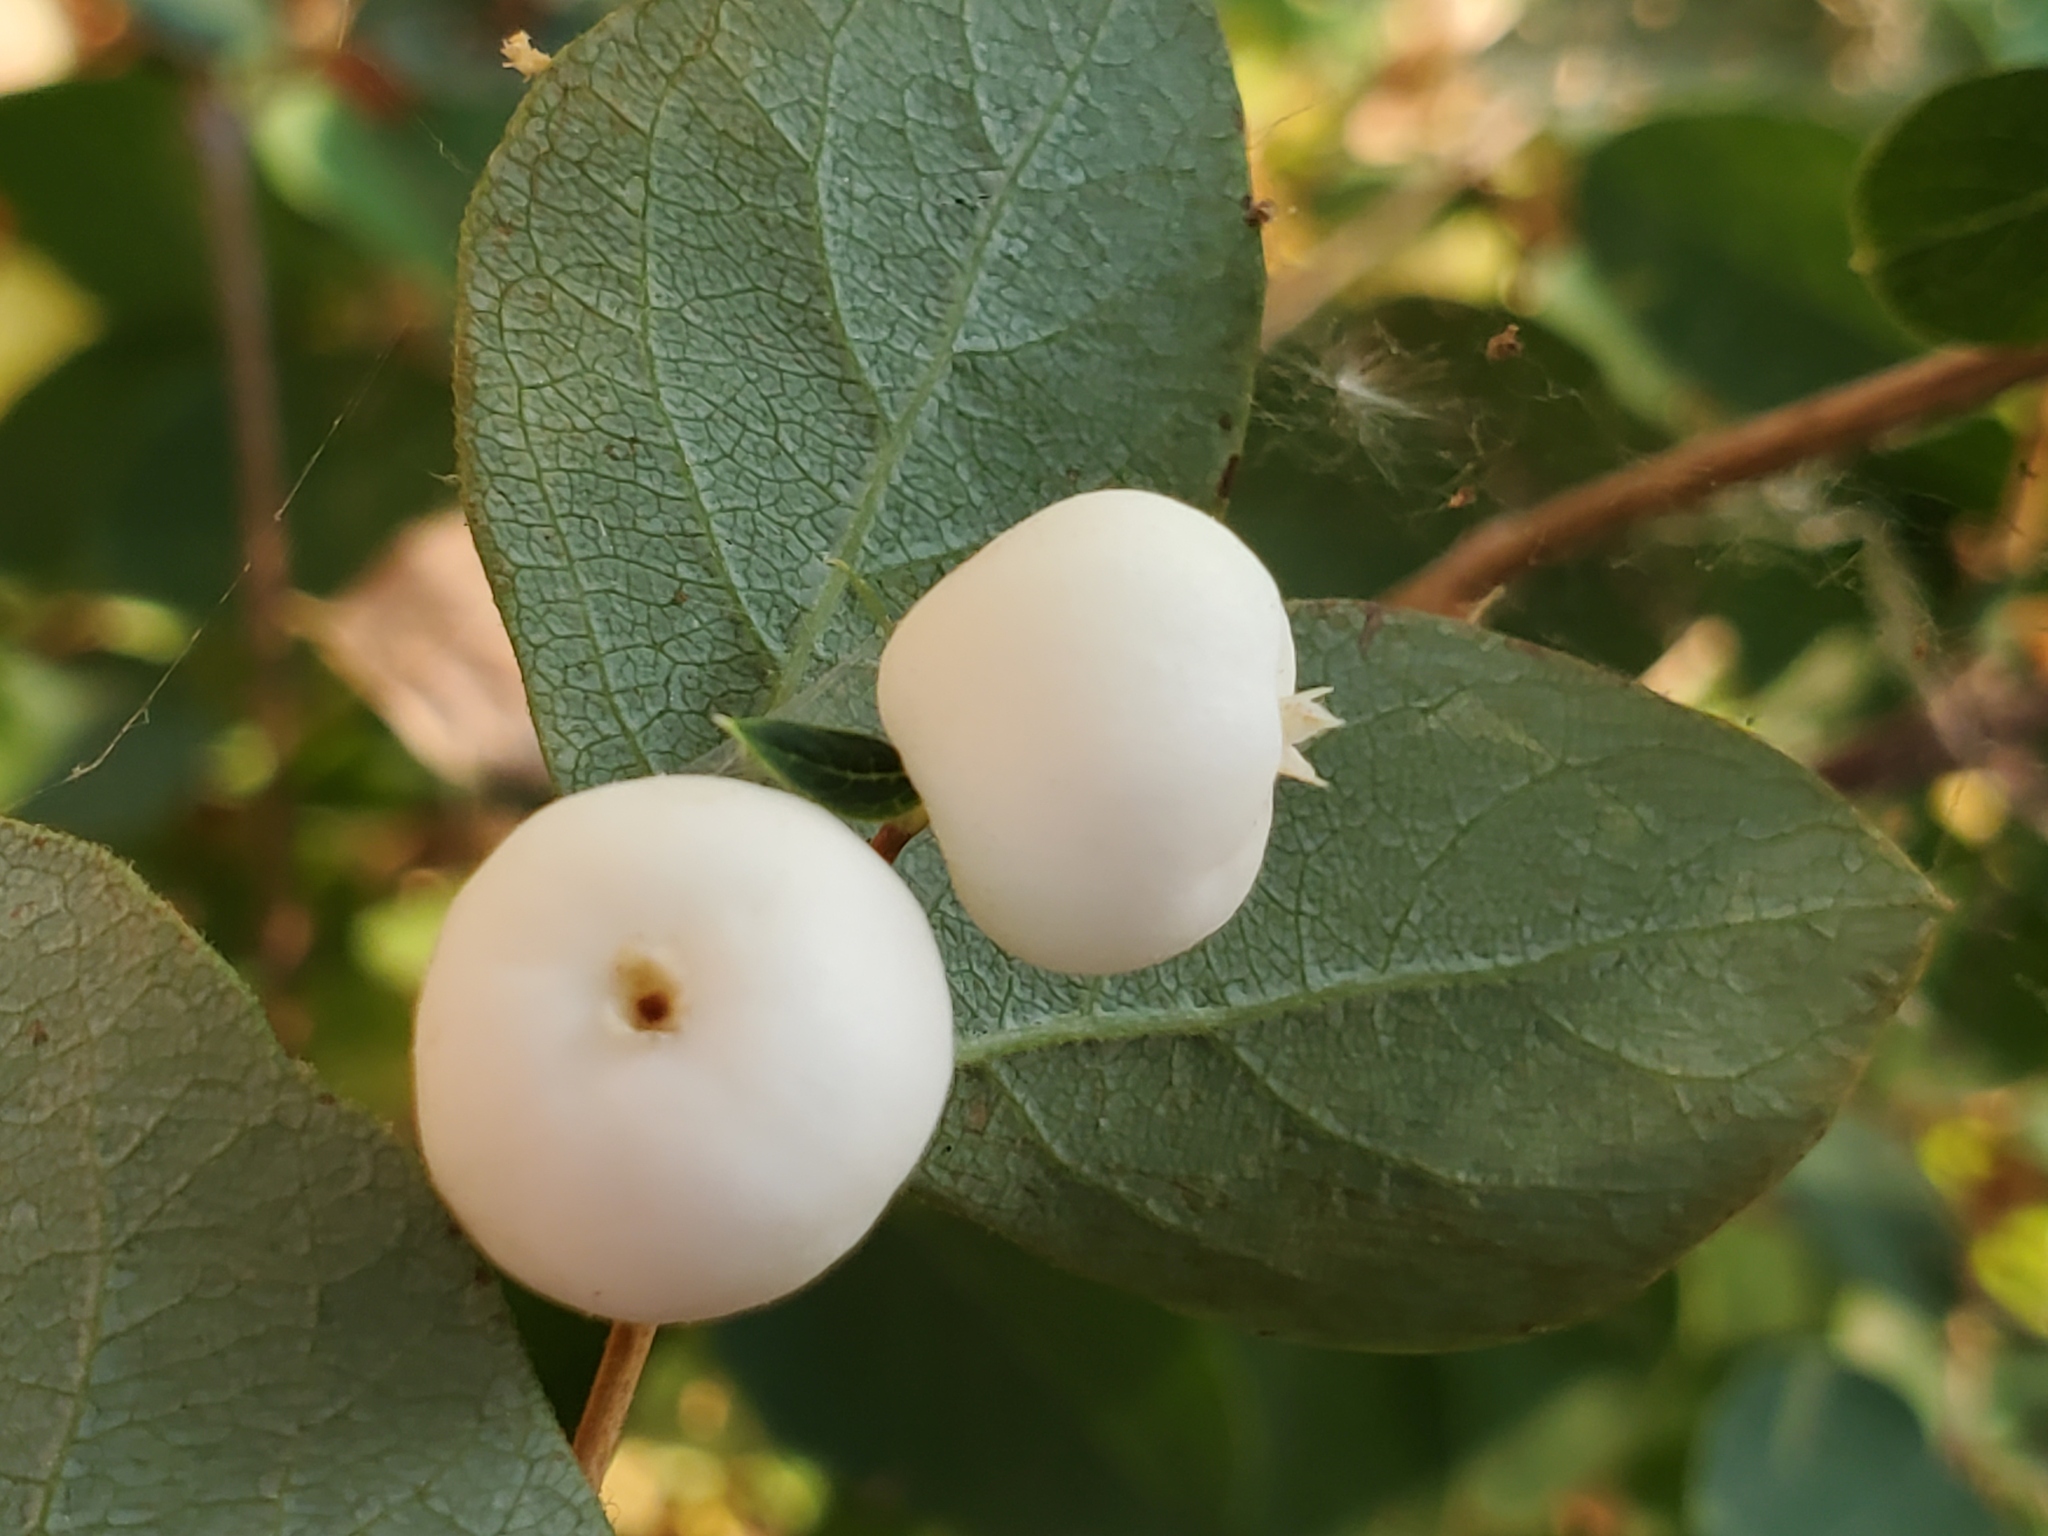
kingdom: Plantae
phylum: Tracheophyta
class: Magnoliopsida
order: Dipsacales
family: Caprifoliaceae
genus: Symphoricarpos
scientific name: Symphoricarpos albus
